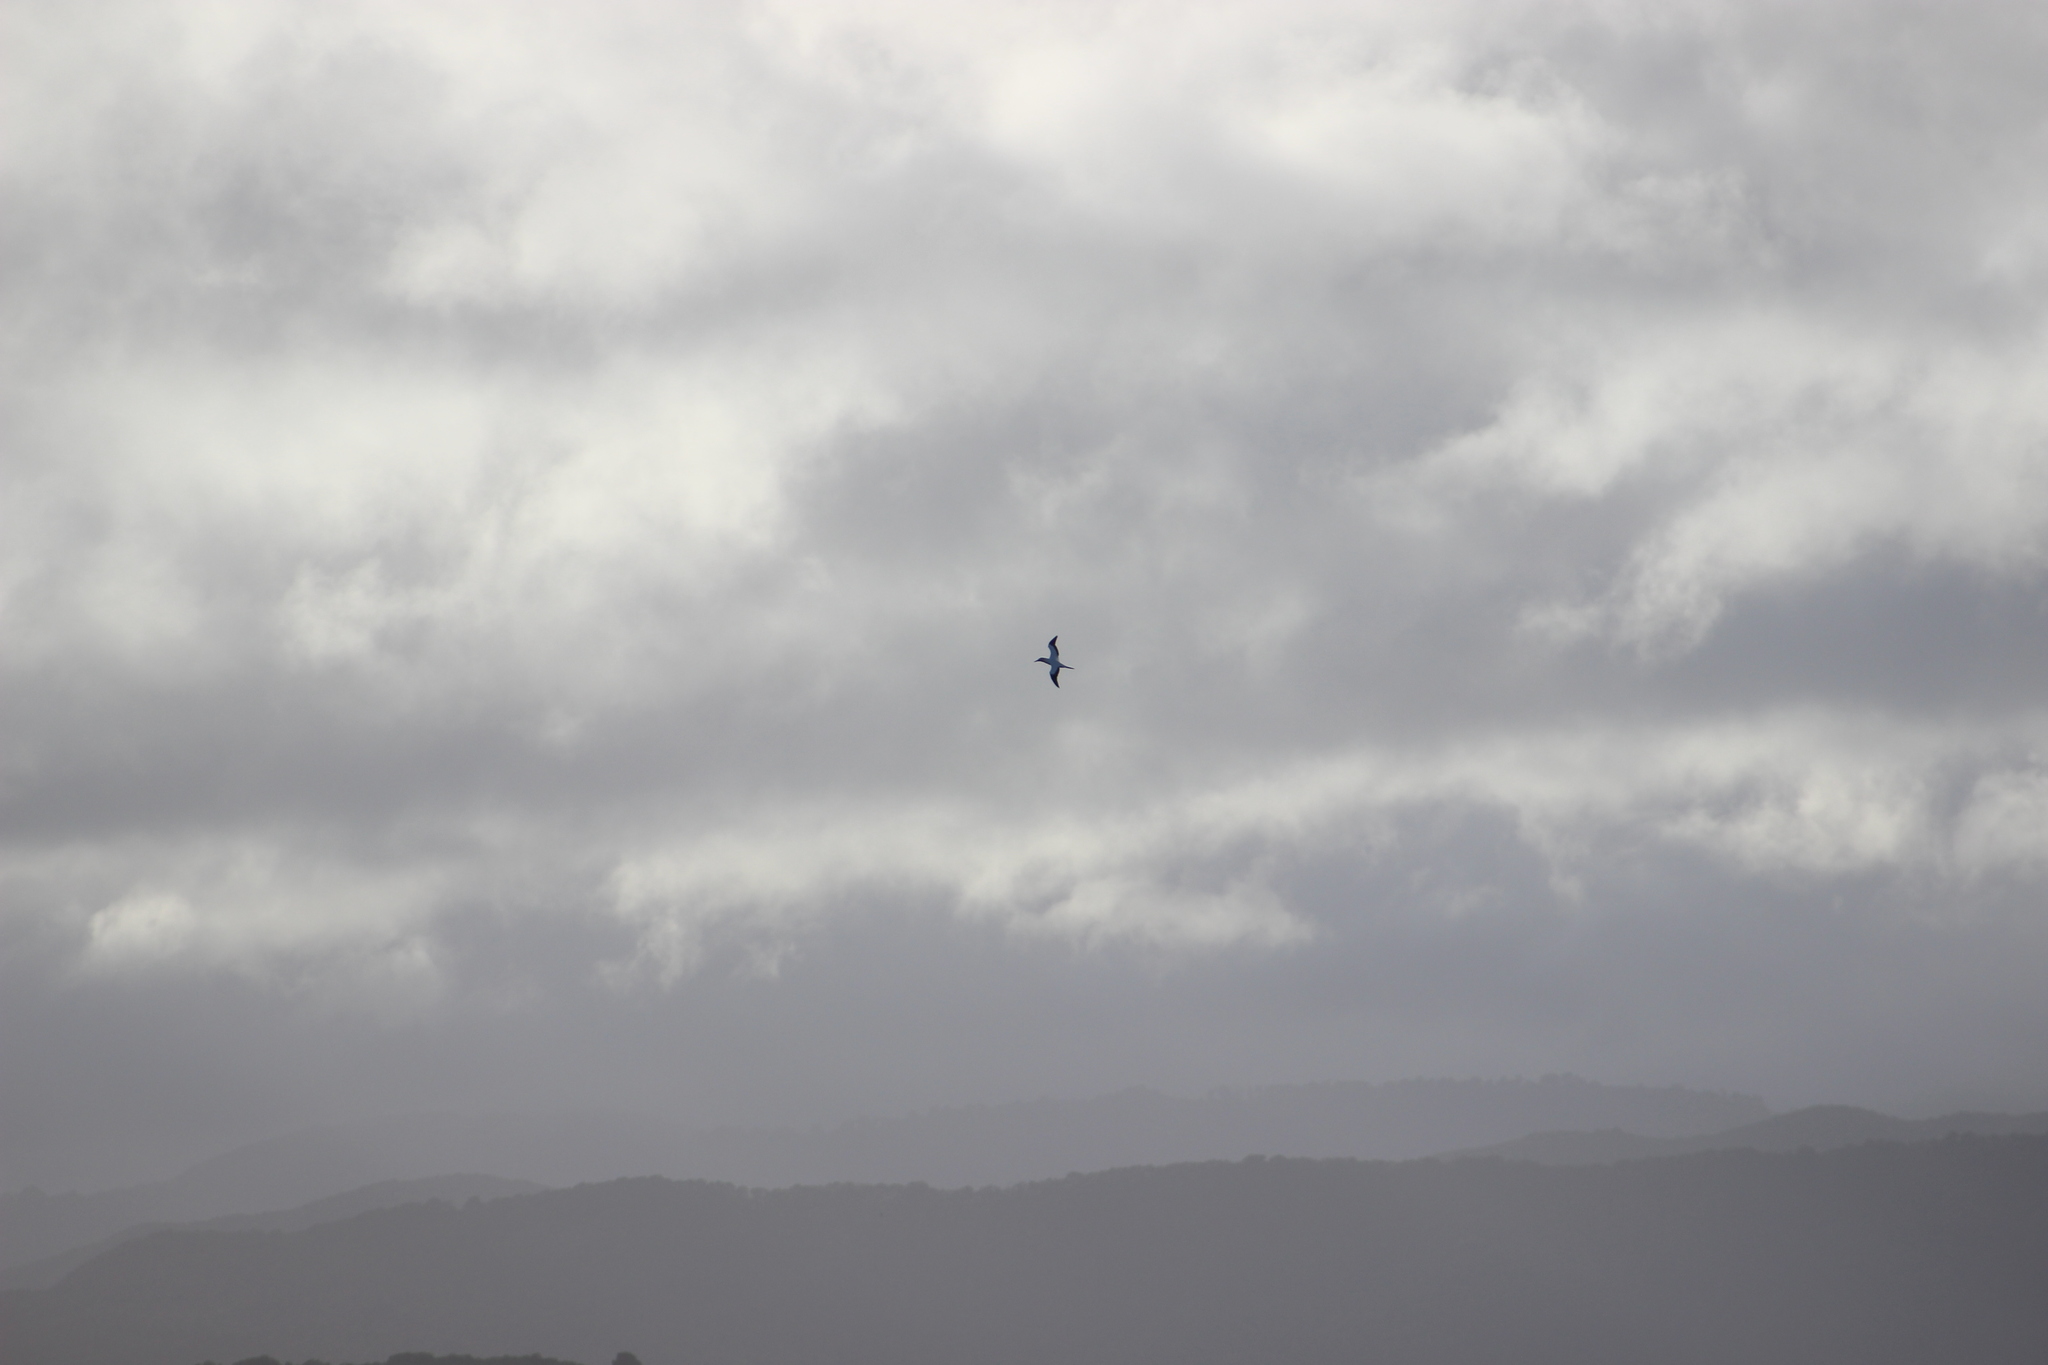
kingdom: Animalia
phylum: Chordata
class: Aves
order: Suliformes
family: Sulidae
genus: Morus
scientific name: Morus serrator
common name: Australasian gannet
